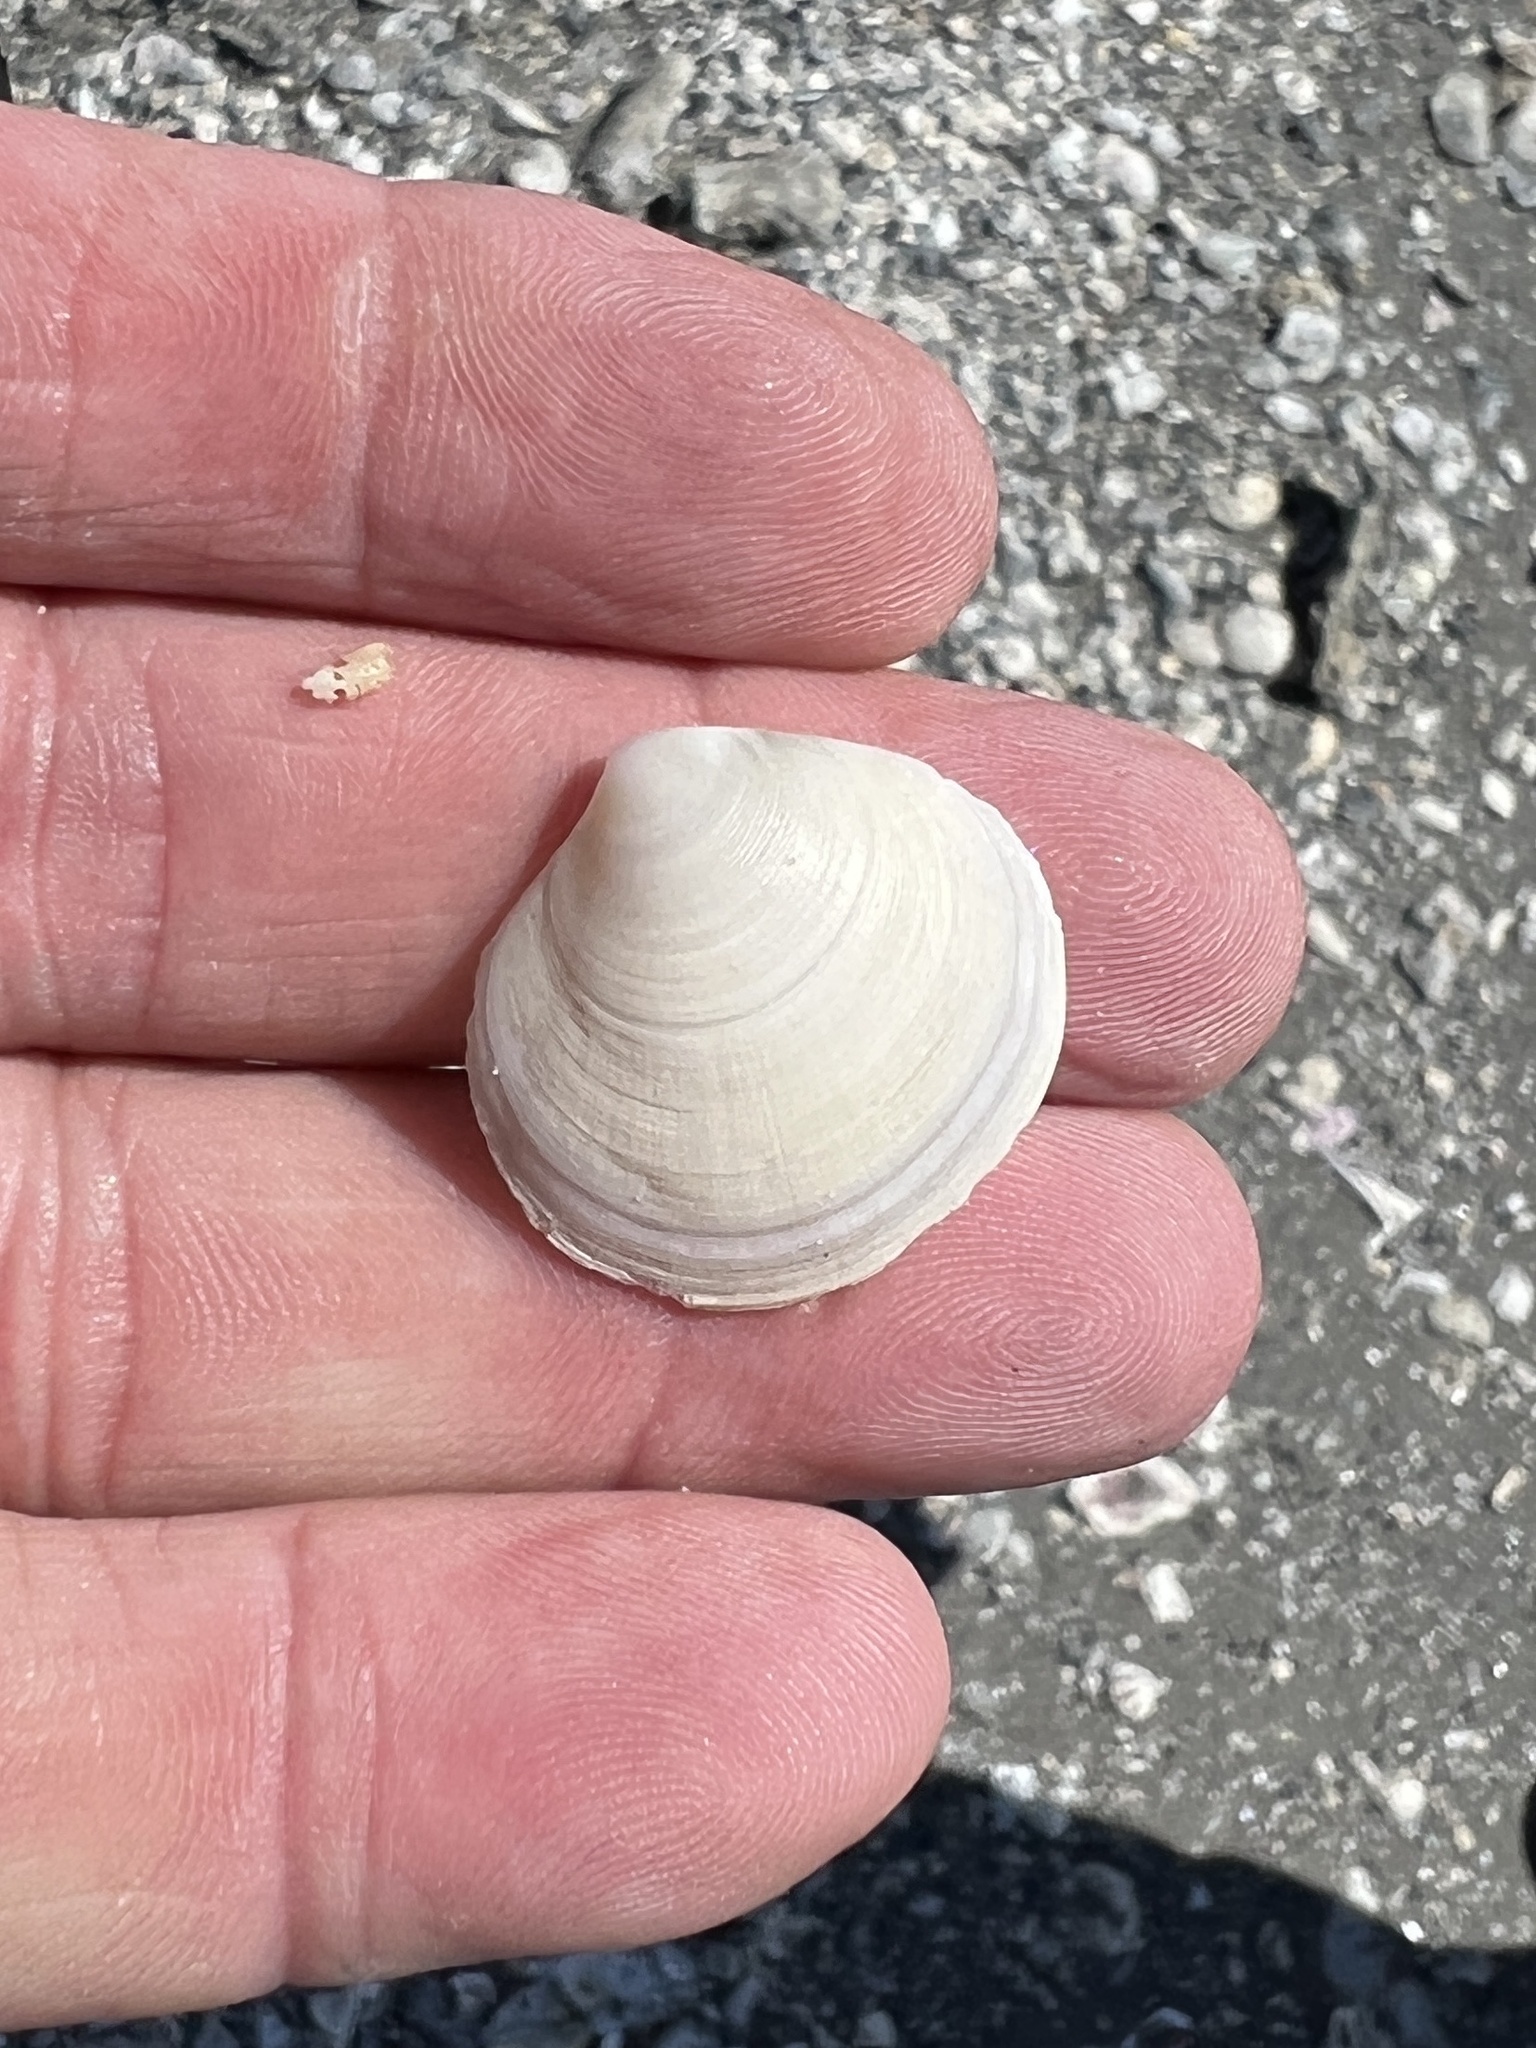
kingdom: Animalia
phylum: Mollusca
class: Bivalvia
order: Cardiida
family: Semelidae
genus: Semele
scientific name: Semele proficua
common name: White atlantic semele
